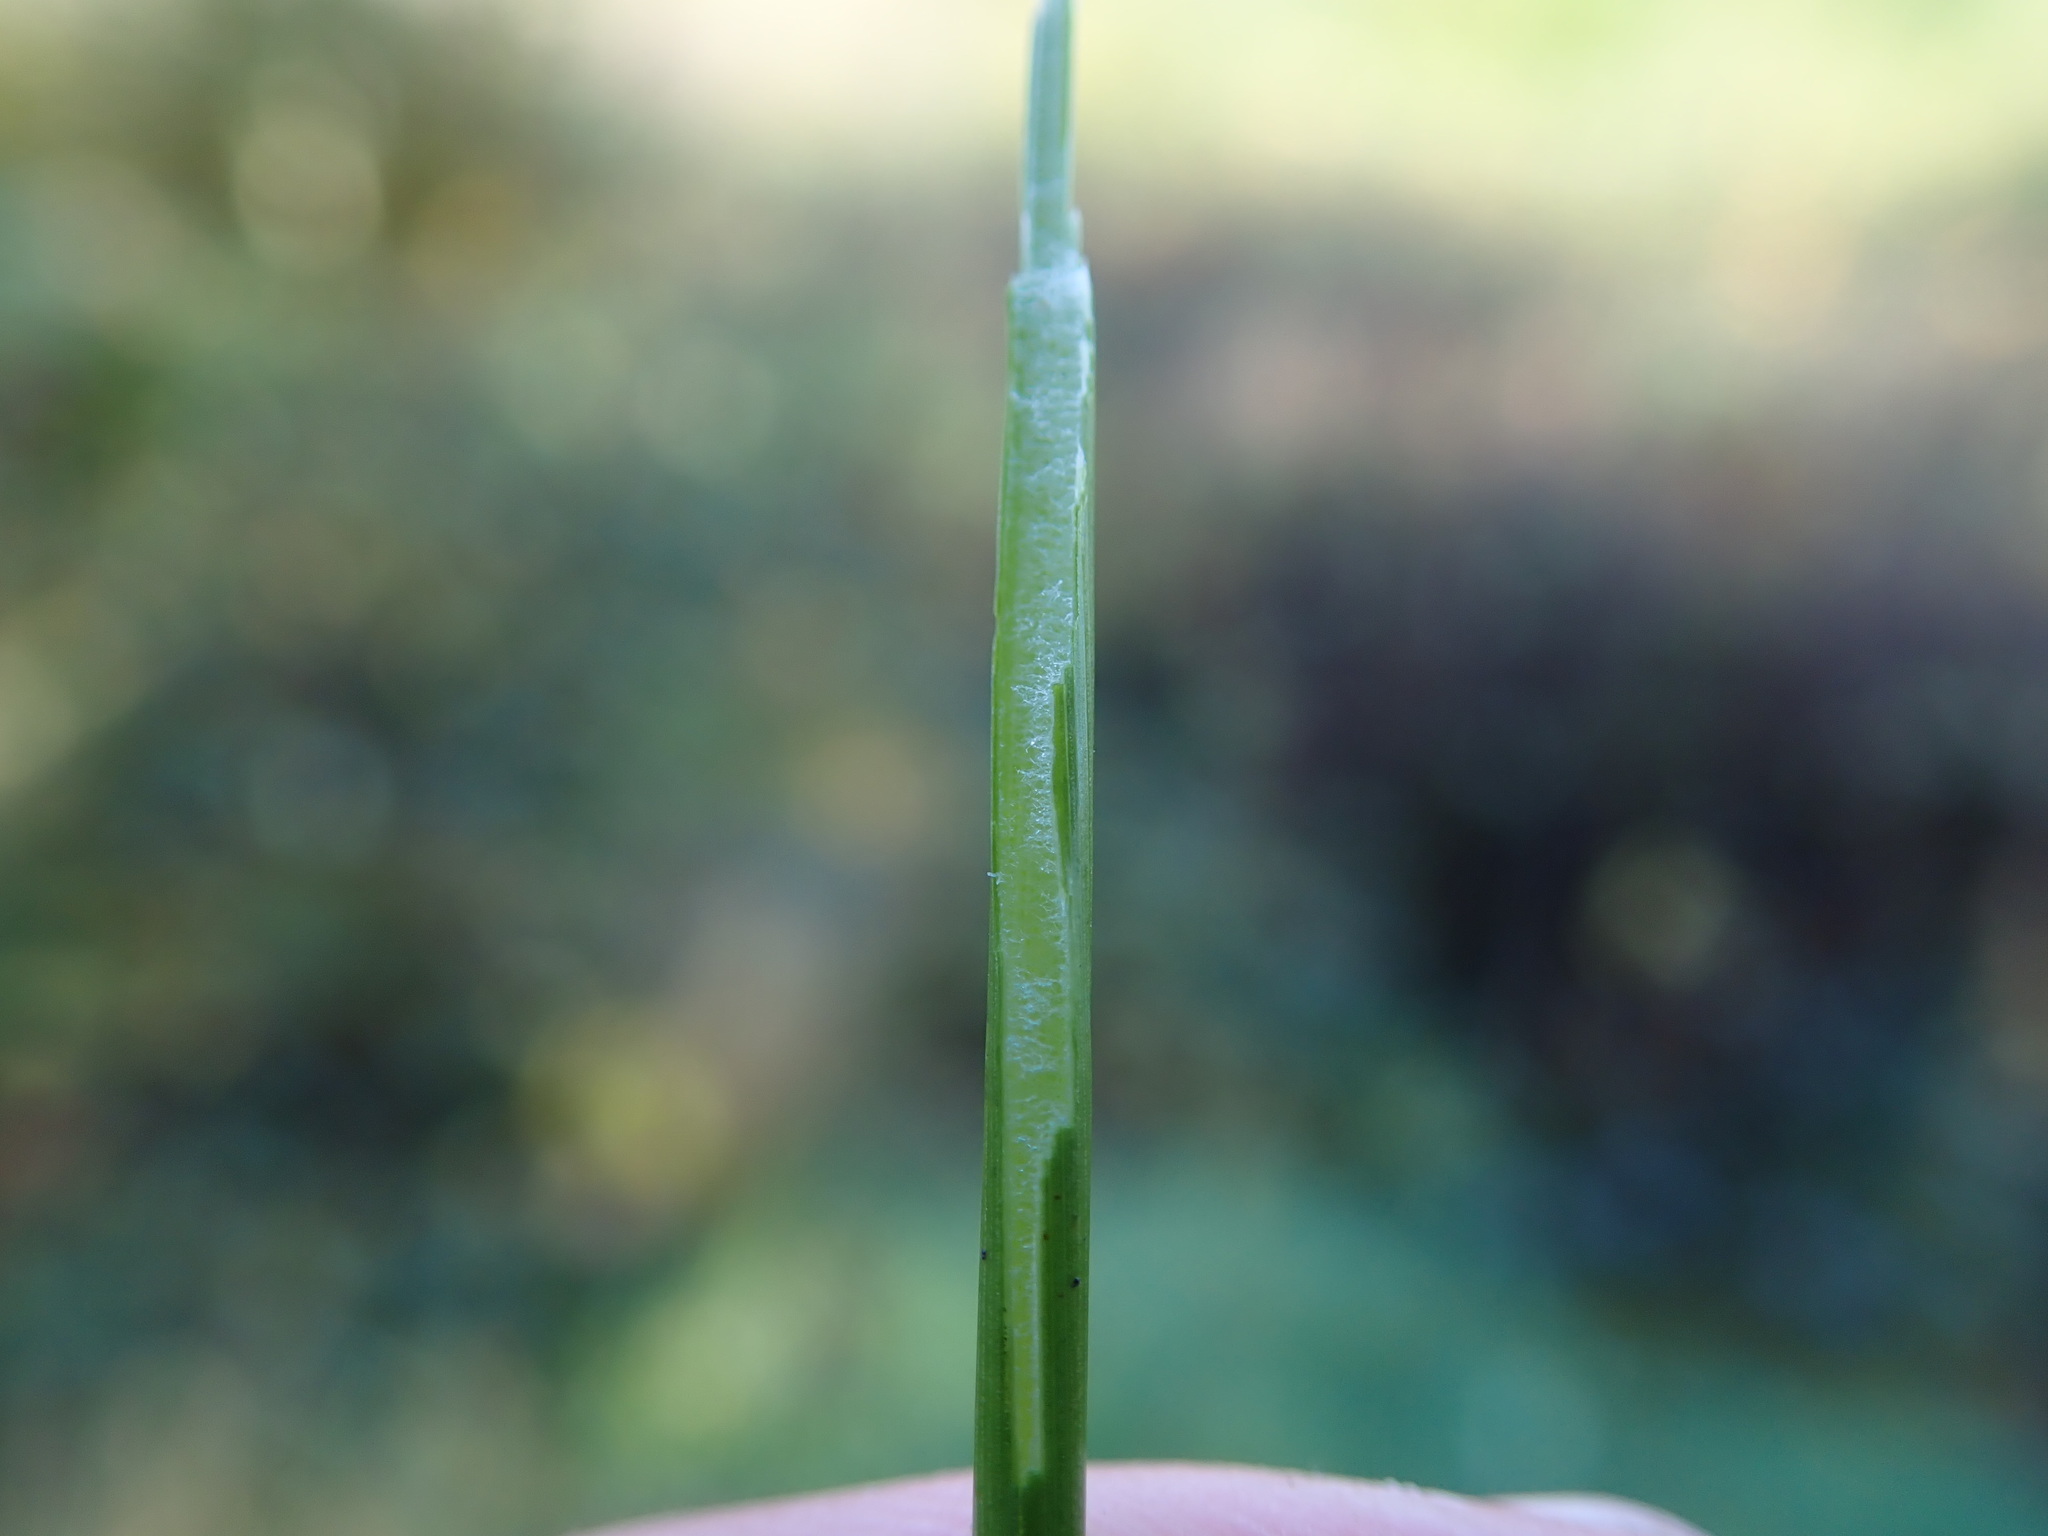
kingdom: Plantae
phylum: Tracheophyta
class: Liliopsida
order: Poales
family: Juncaceae
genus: Juncus
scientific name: Juncus effusus
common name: Soft rush
